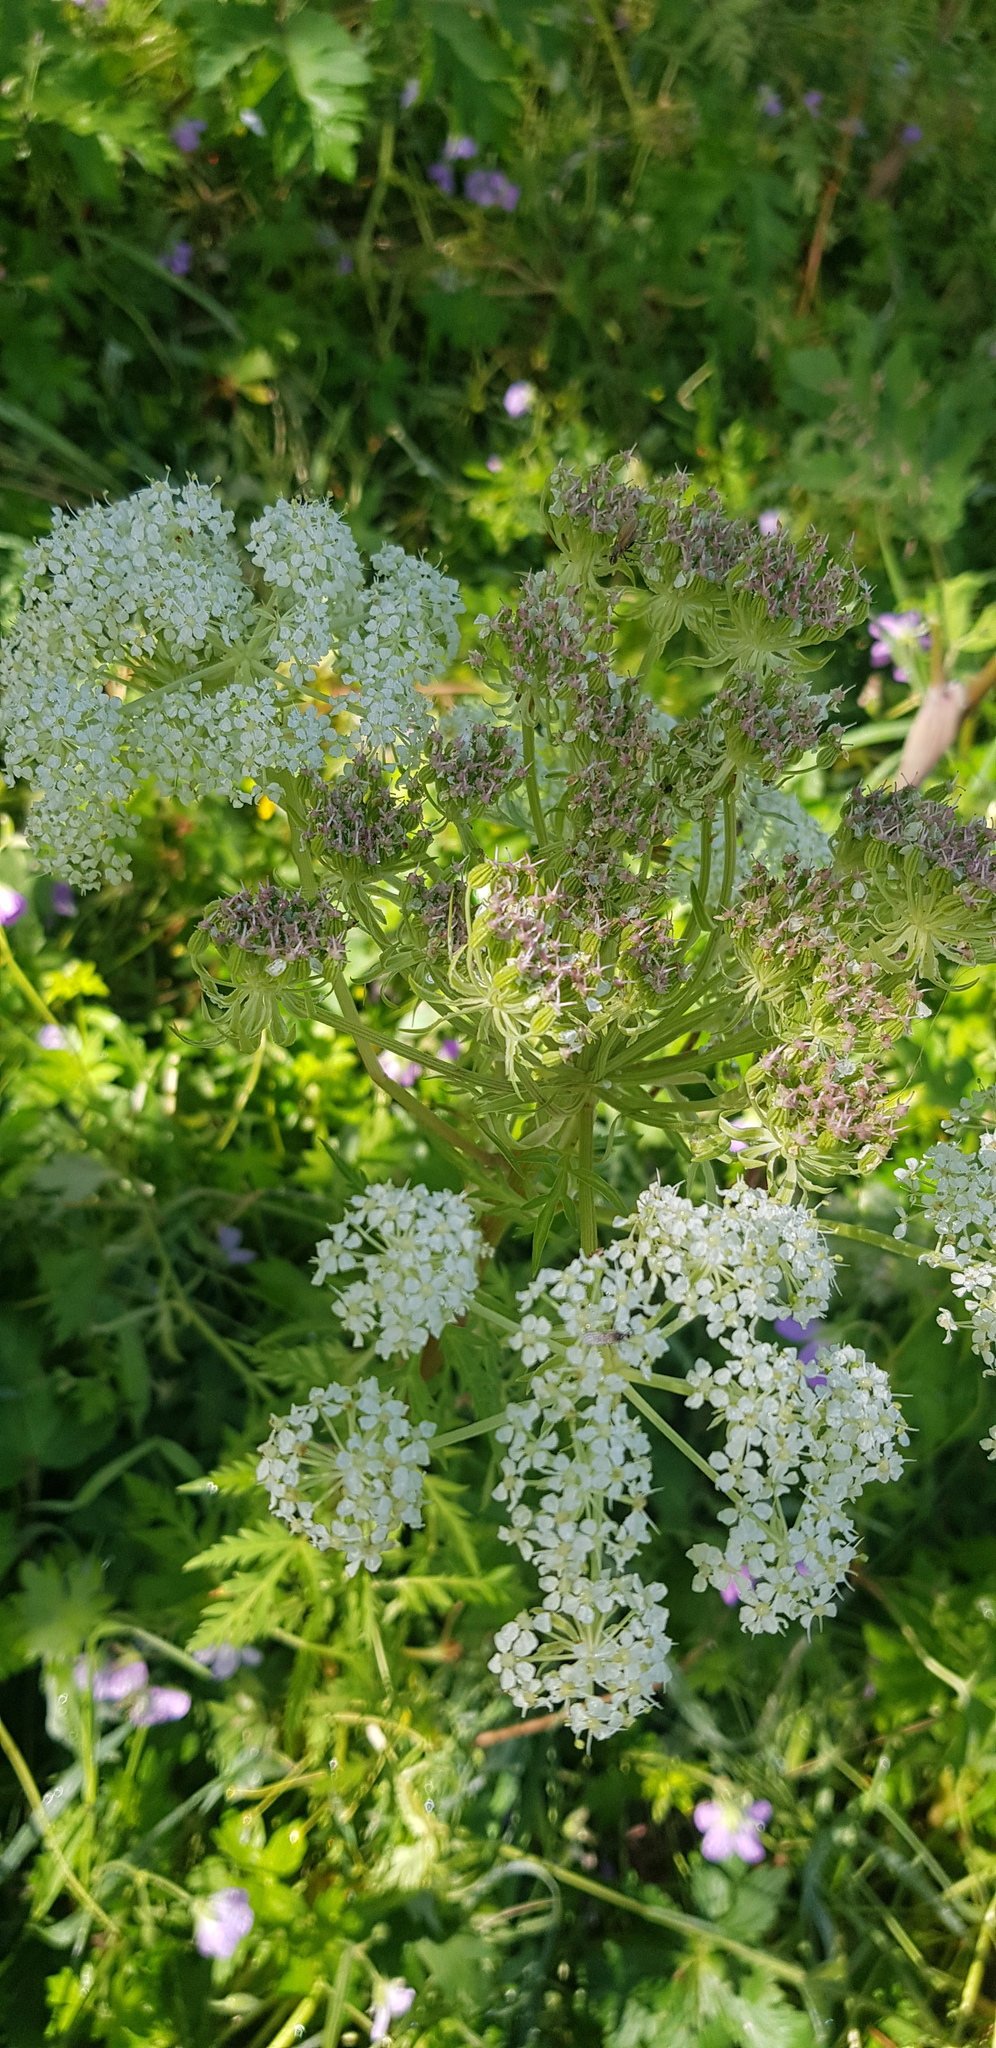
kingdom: Plantae
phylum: Tracheophyta
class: Magnoliopsida
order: Apiales
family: Apiaceae
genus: Pleurospermum
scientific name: Pleurospermum uralense
